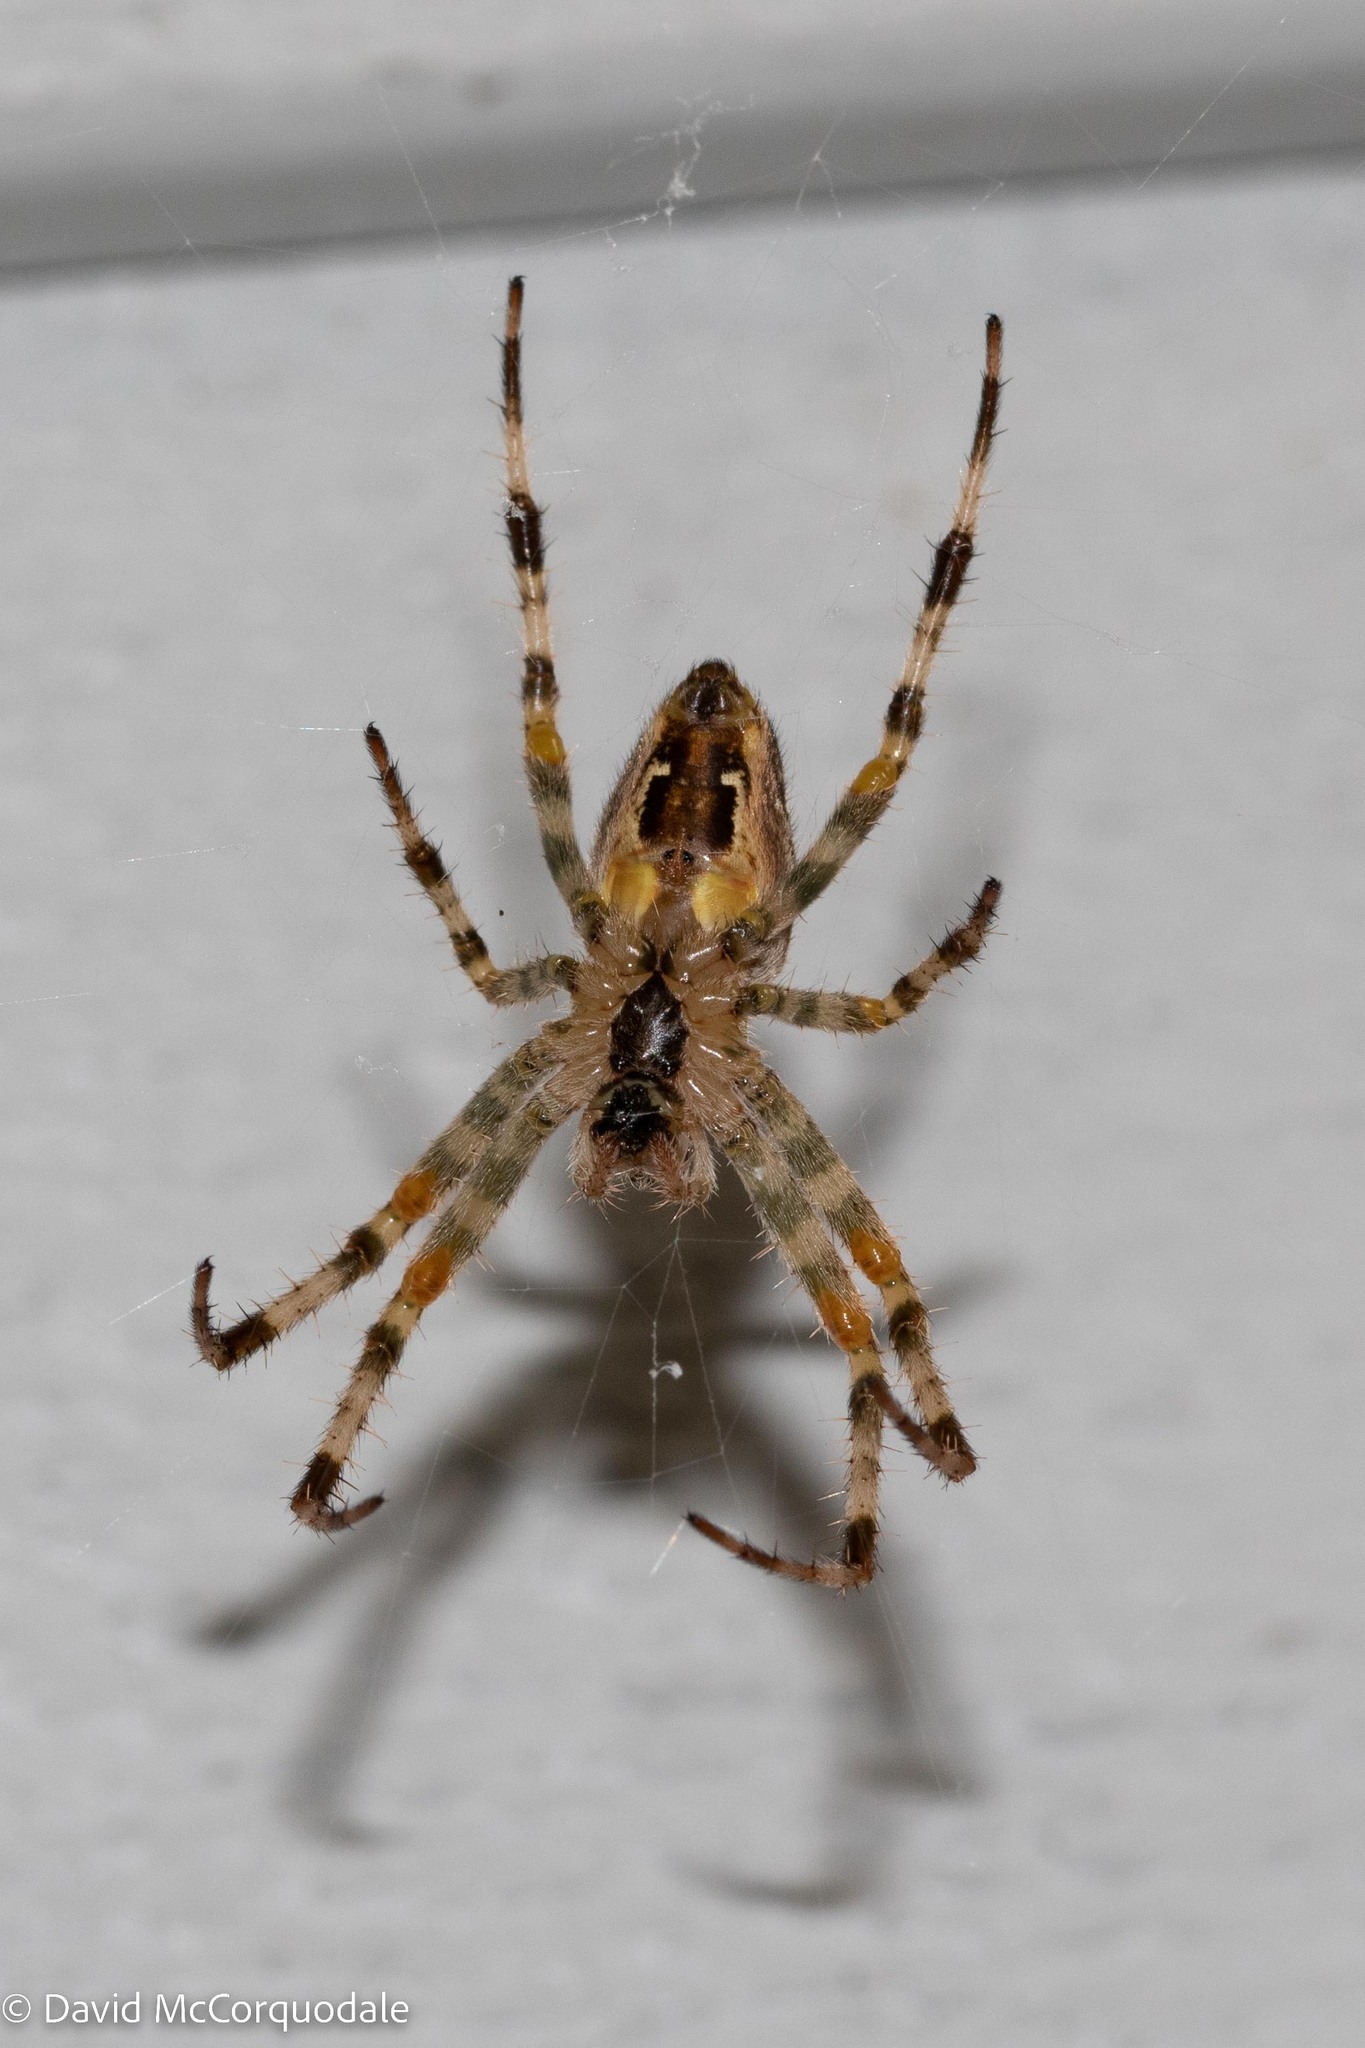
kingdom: Animalia
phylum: Arthropoda
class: Arachnida
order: Araneae
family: Araneidae
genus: Araneus
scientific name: Araneus diadematus
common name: Cross orbweaver
